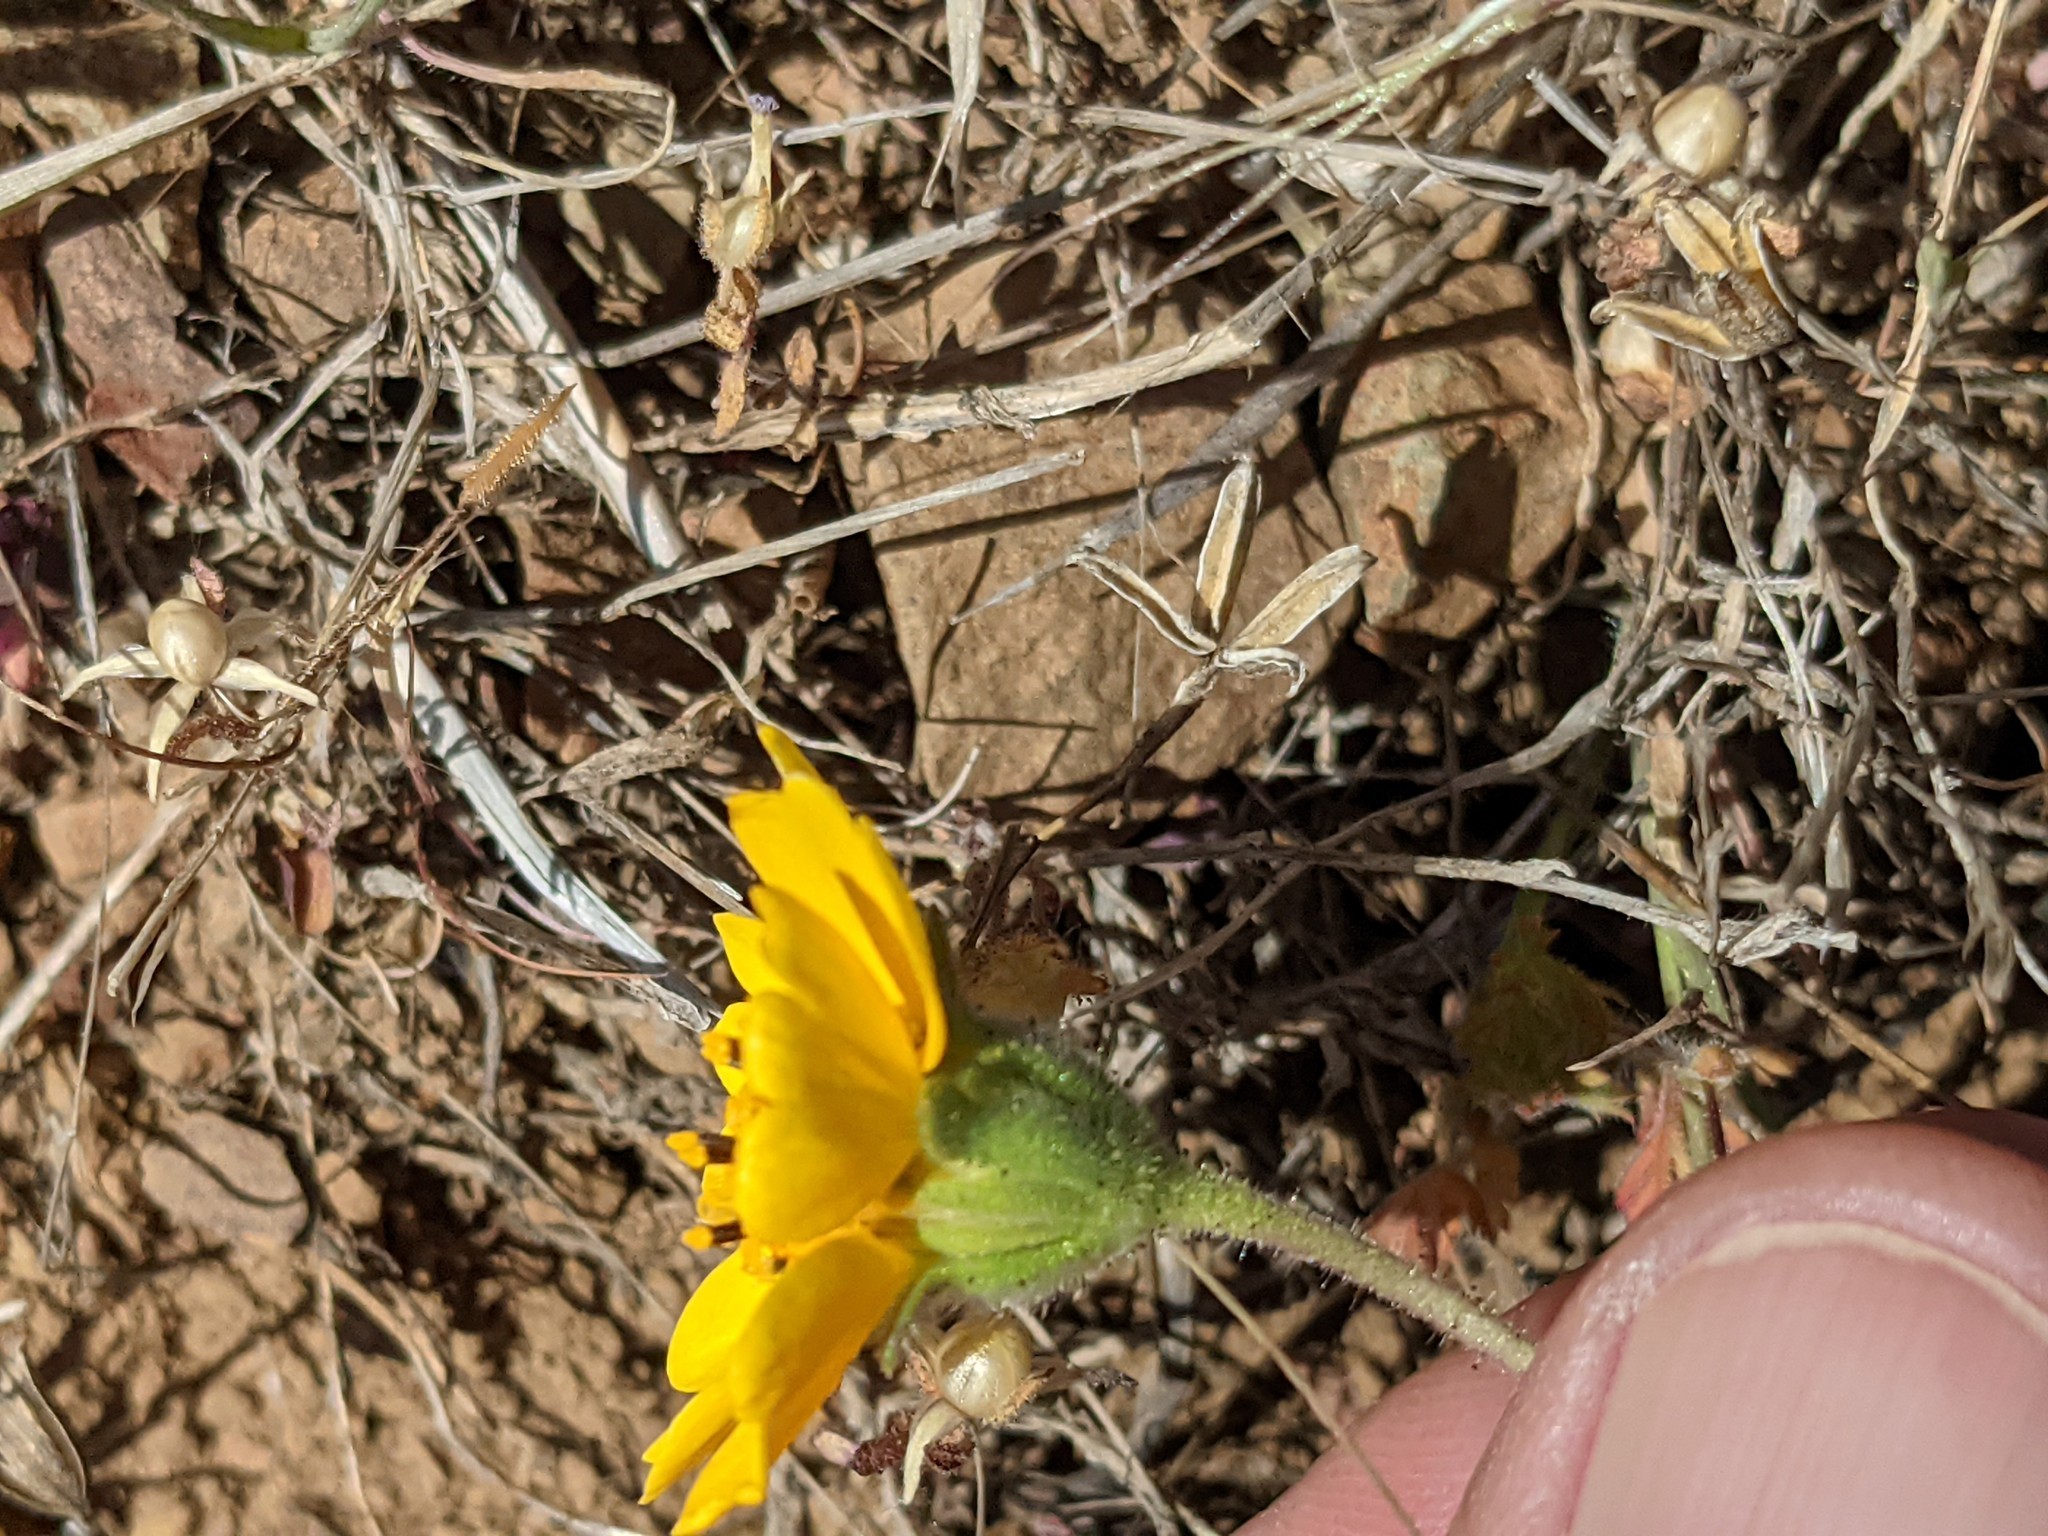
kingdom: Plantae
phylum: Tracheophyta
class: Magnoliopsida
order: Asterales
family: Asteraceae
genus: Layia
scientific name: Layia platyglossa
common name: Tidy-tips
